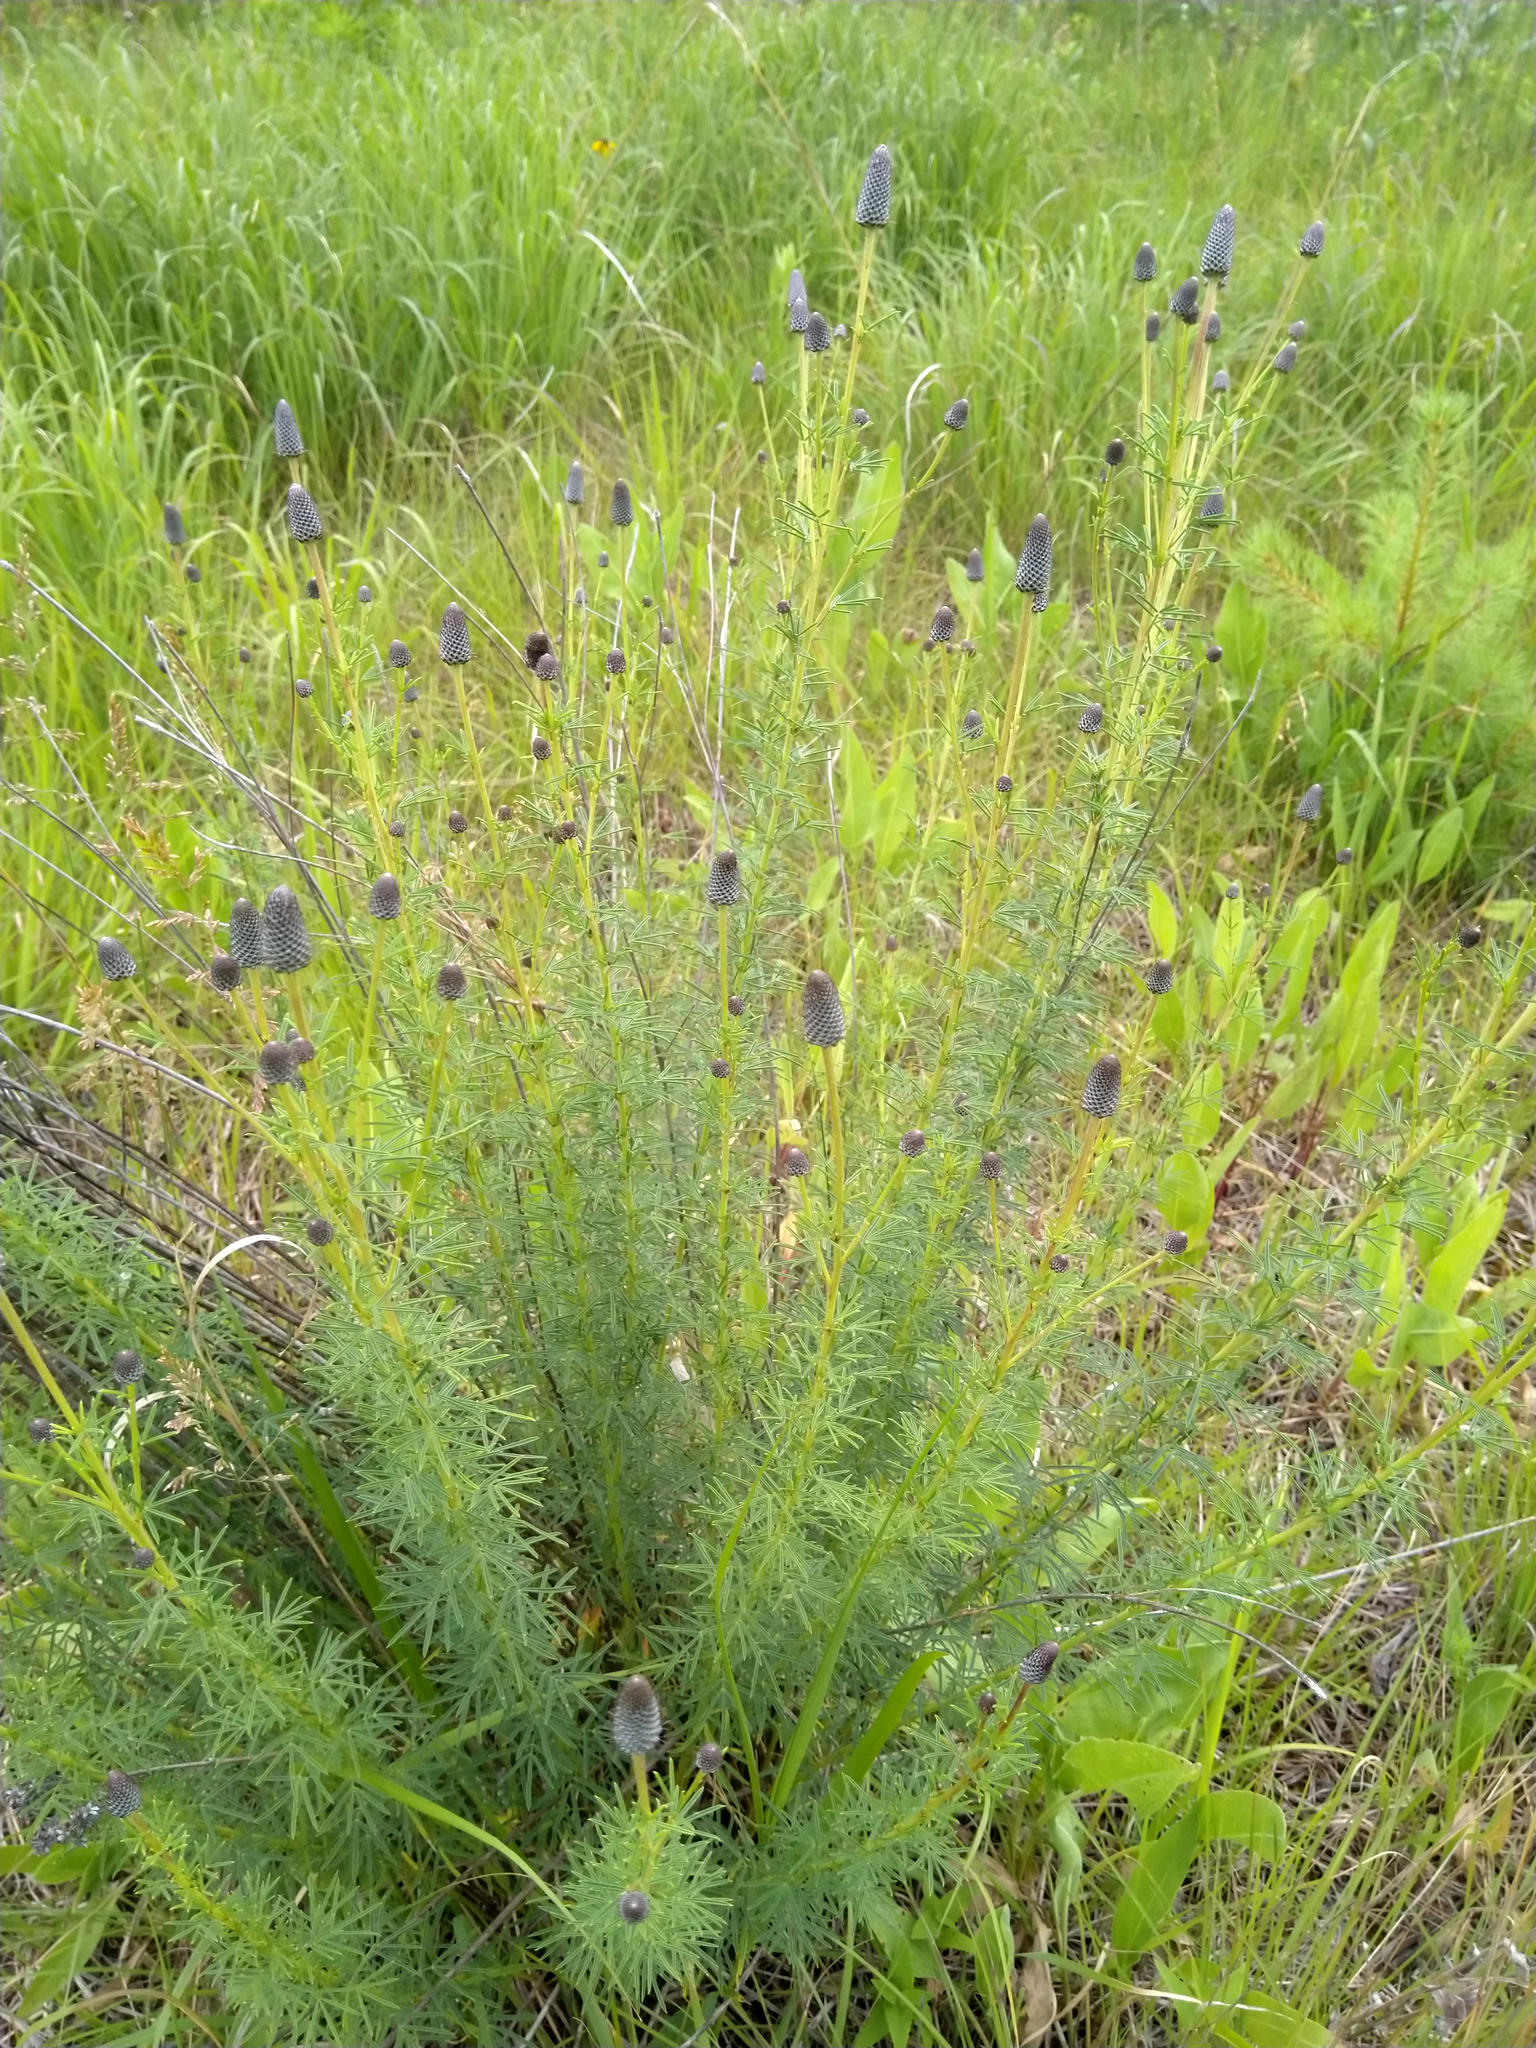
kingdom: Plantae
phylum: Tracheophyta
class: Magnoliopsida
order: Fabales
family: Fabaceae
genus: Dalea
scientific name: Dalea purpurea
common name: Purple prairie-clover
